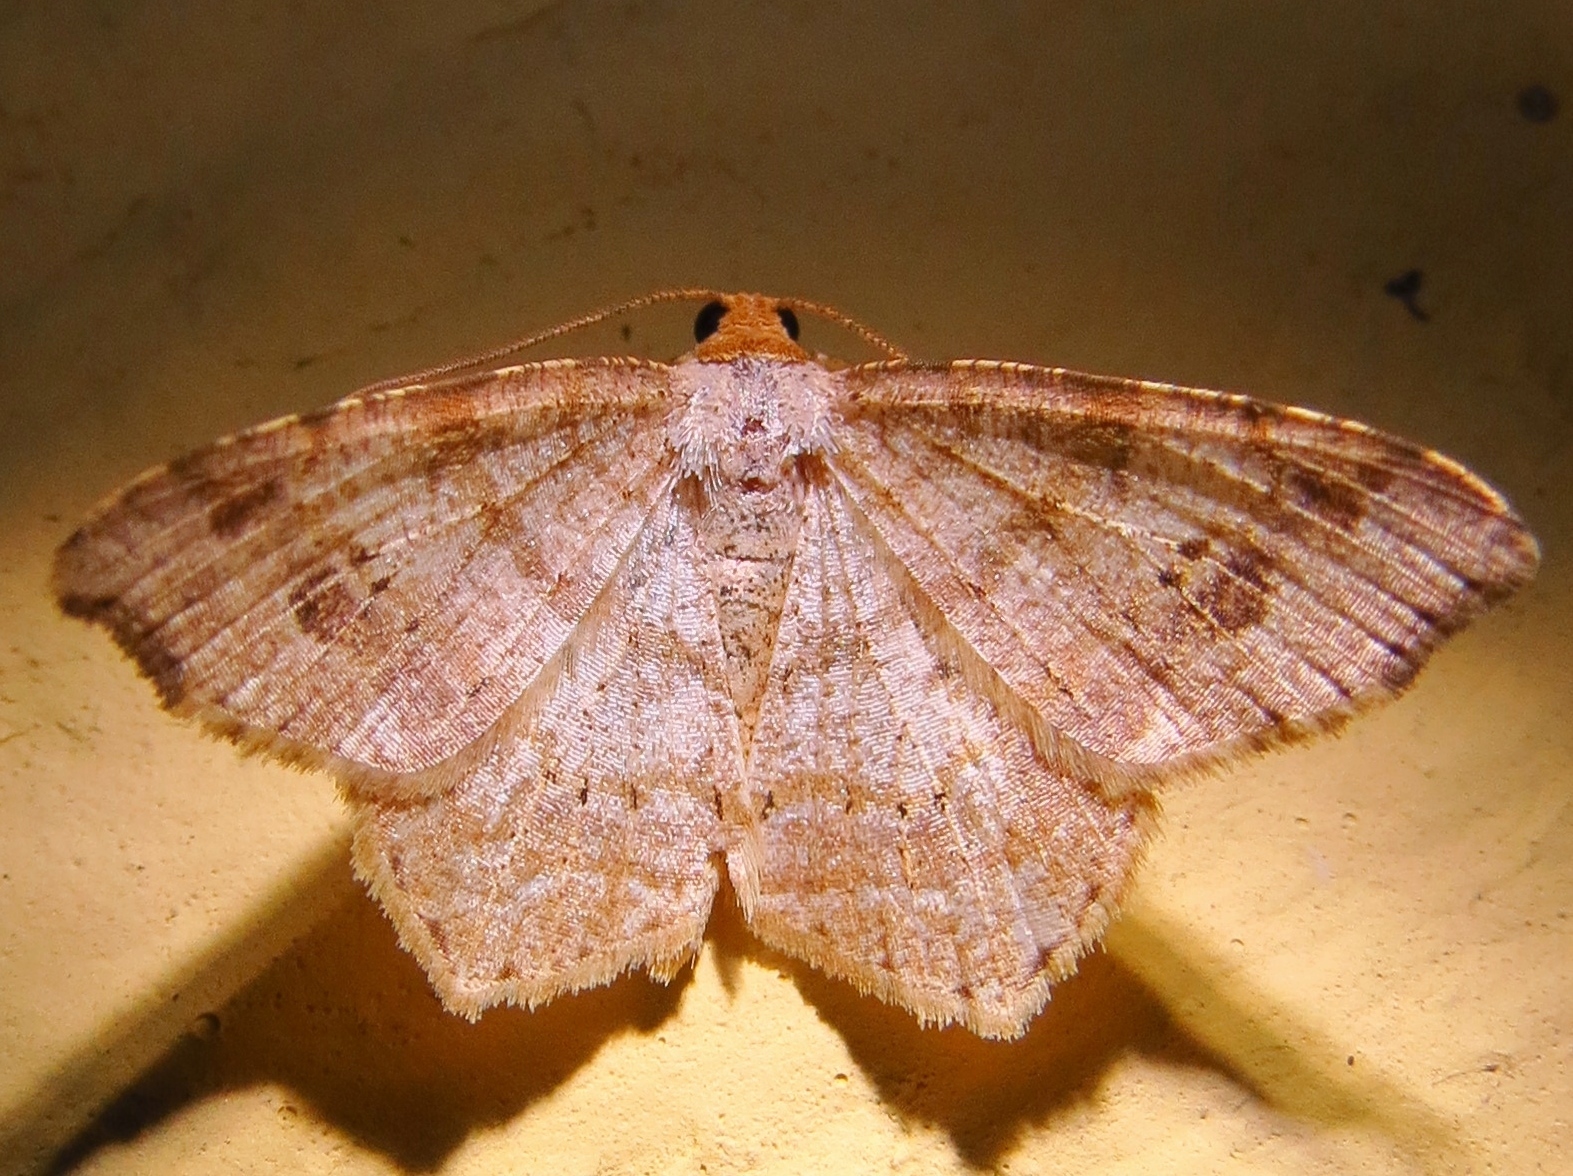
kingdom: Animalia
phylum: Arthropoda
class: Insecta
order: Lepidoptera
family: Geometridae
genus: Macaria
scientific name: Macaria abydata
